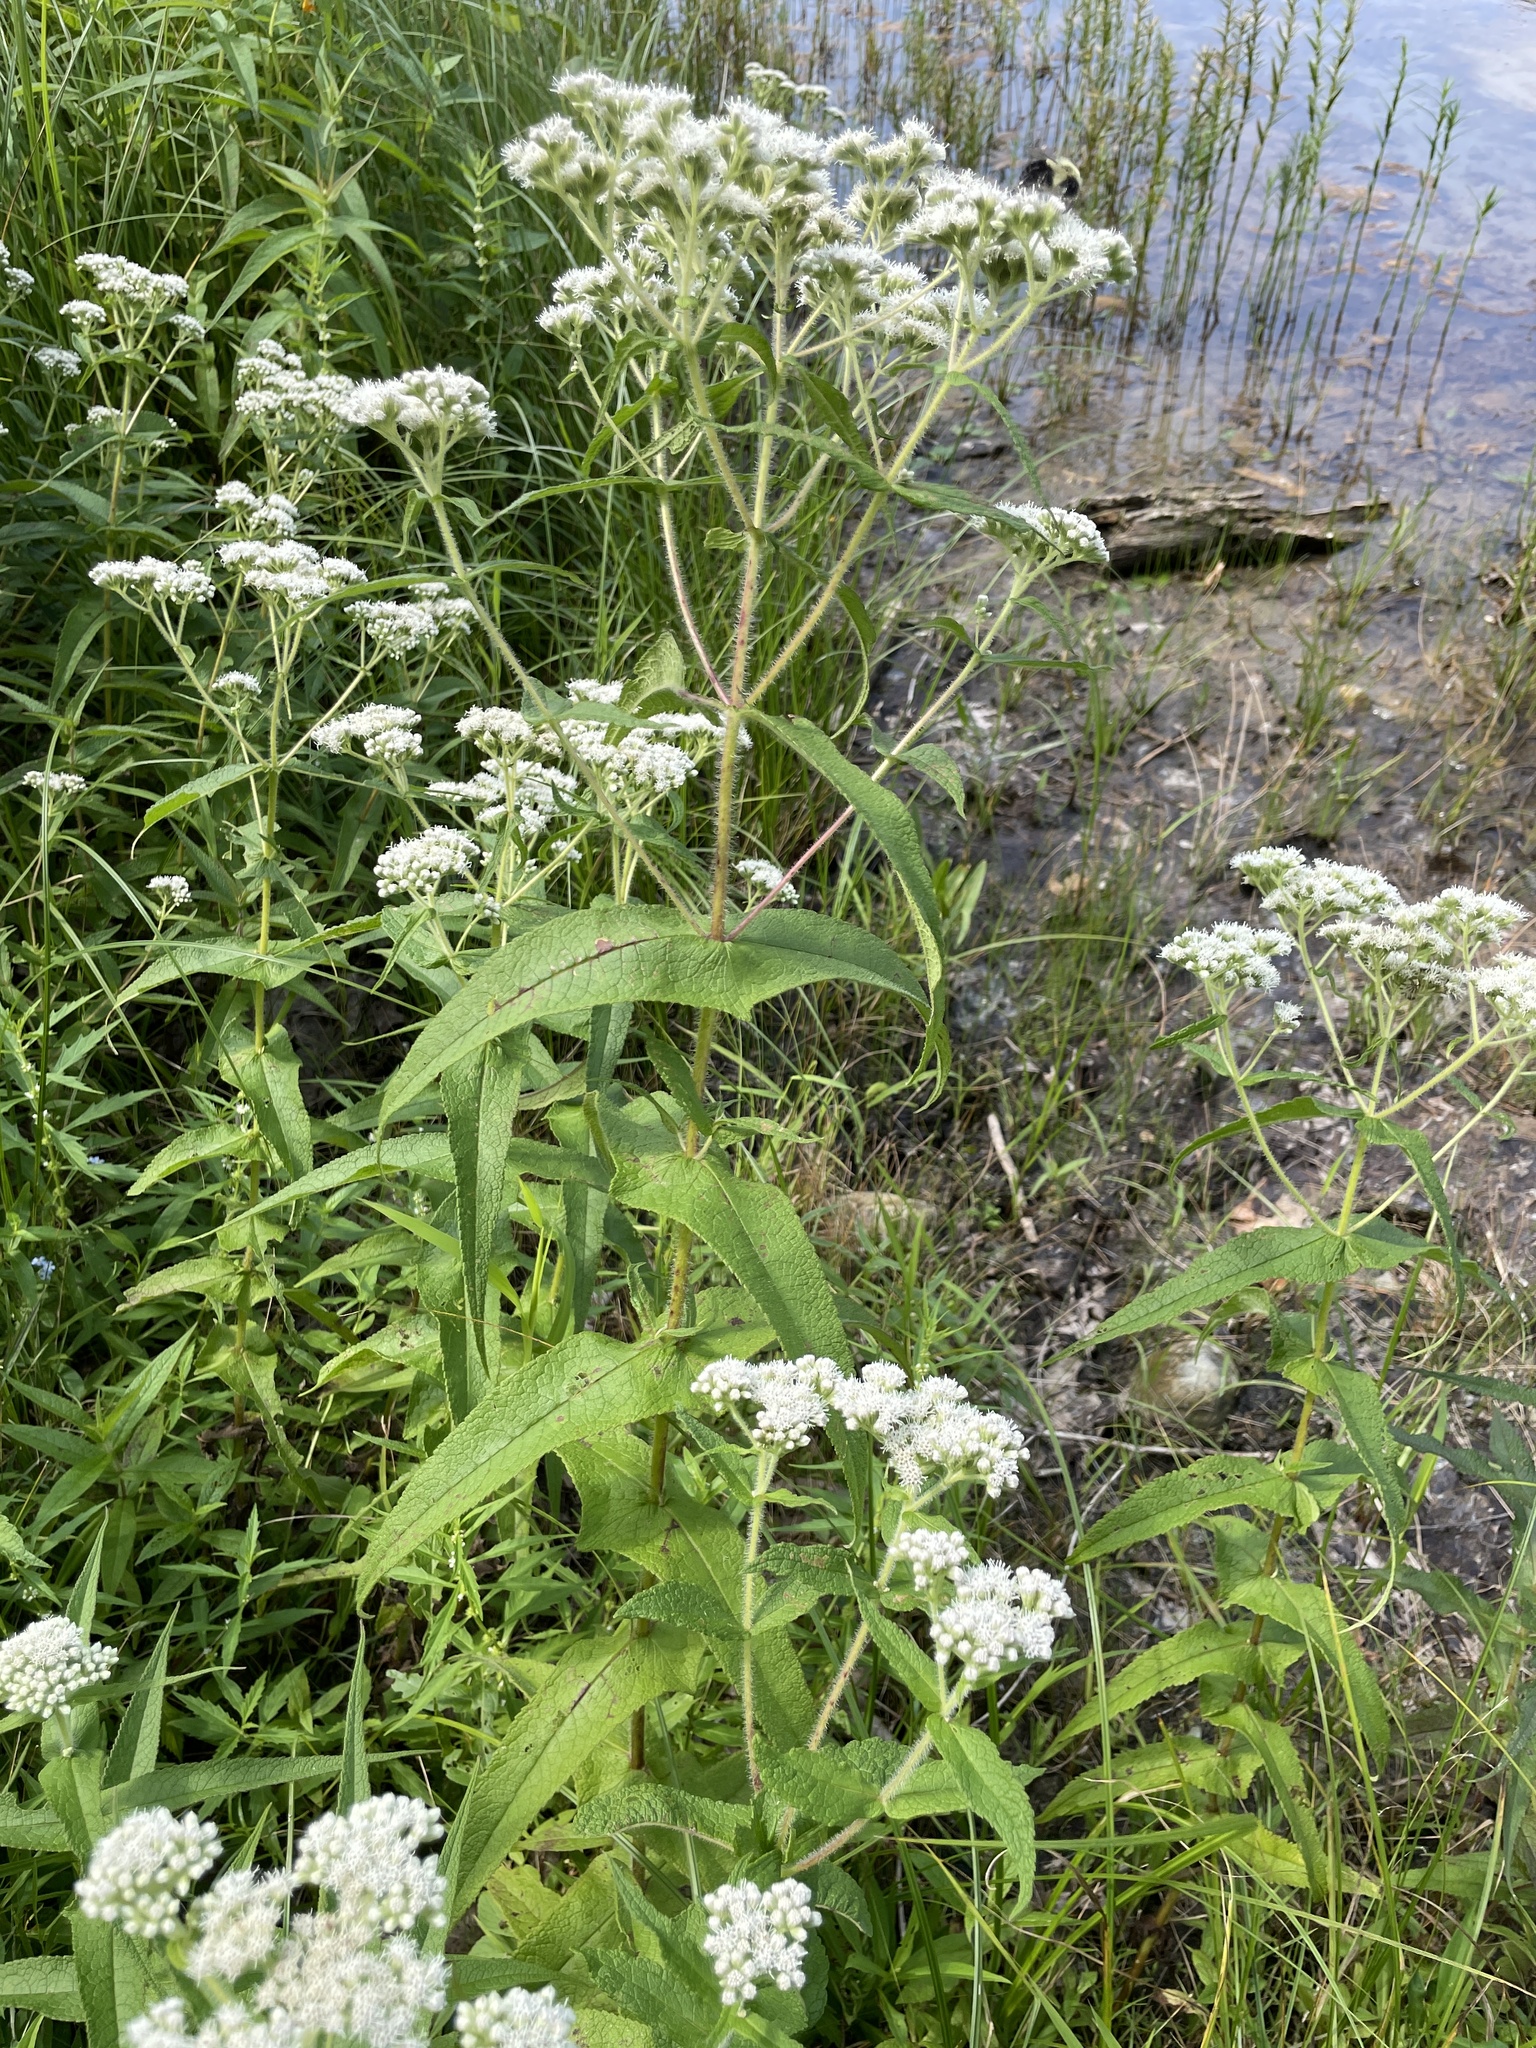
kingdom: Plantae
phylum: Tracheophyta
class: Magnoliopsida
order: Asterales
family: Asteraceae
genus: Eupatorium
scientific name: Eupatorium perfoliatum
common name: Boneset
